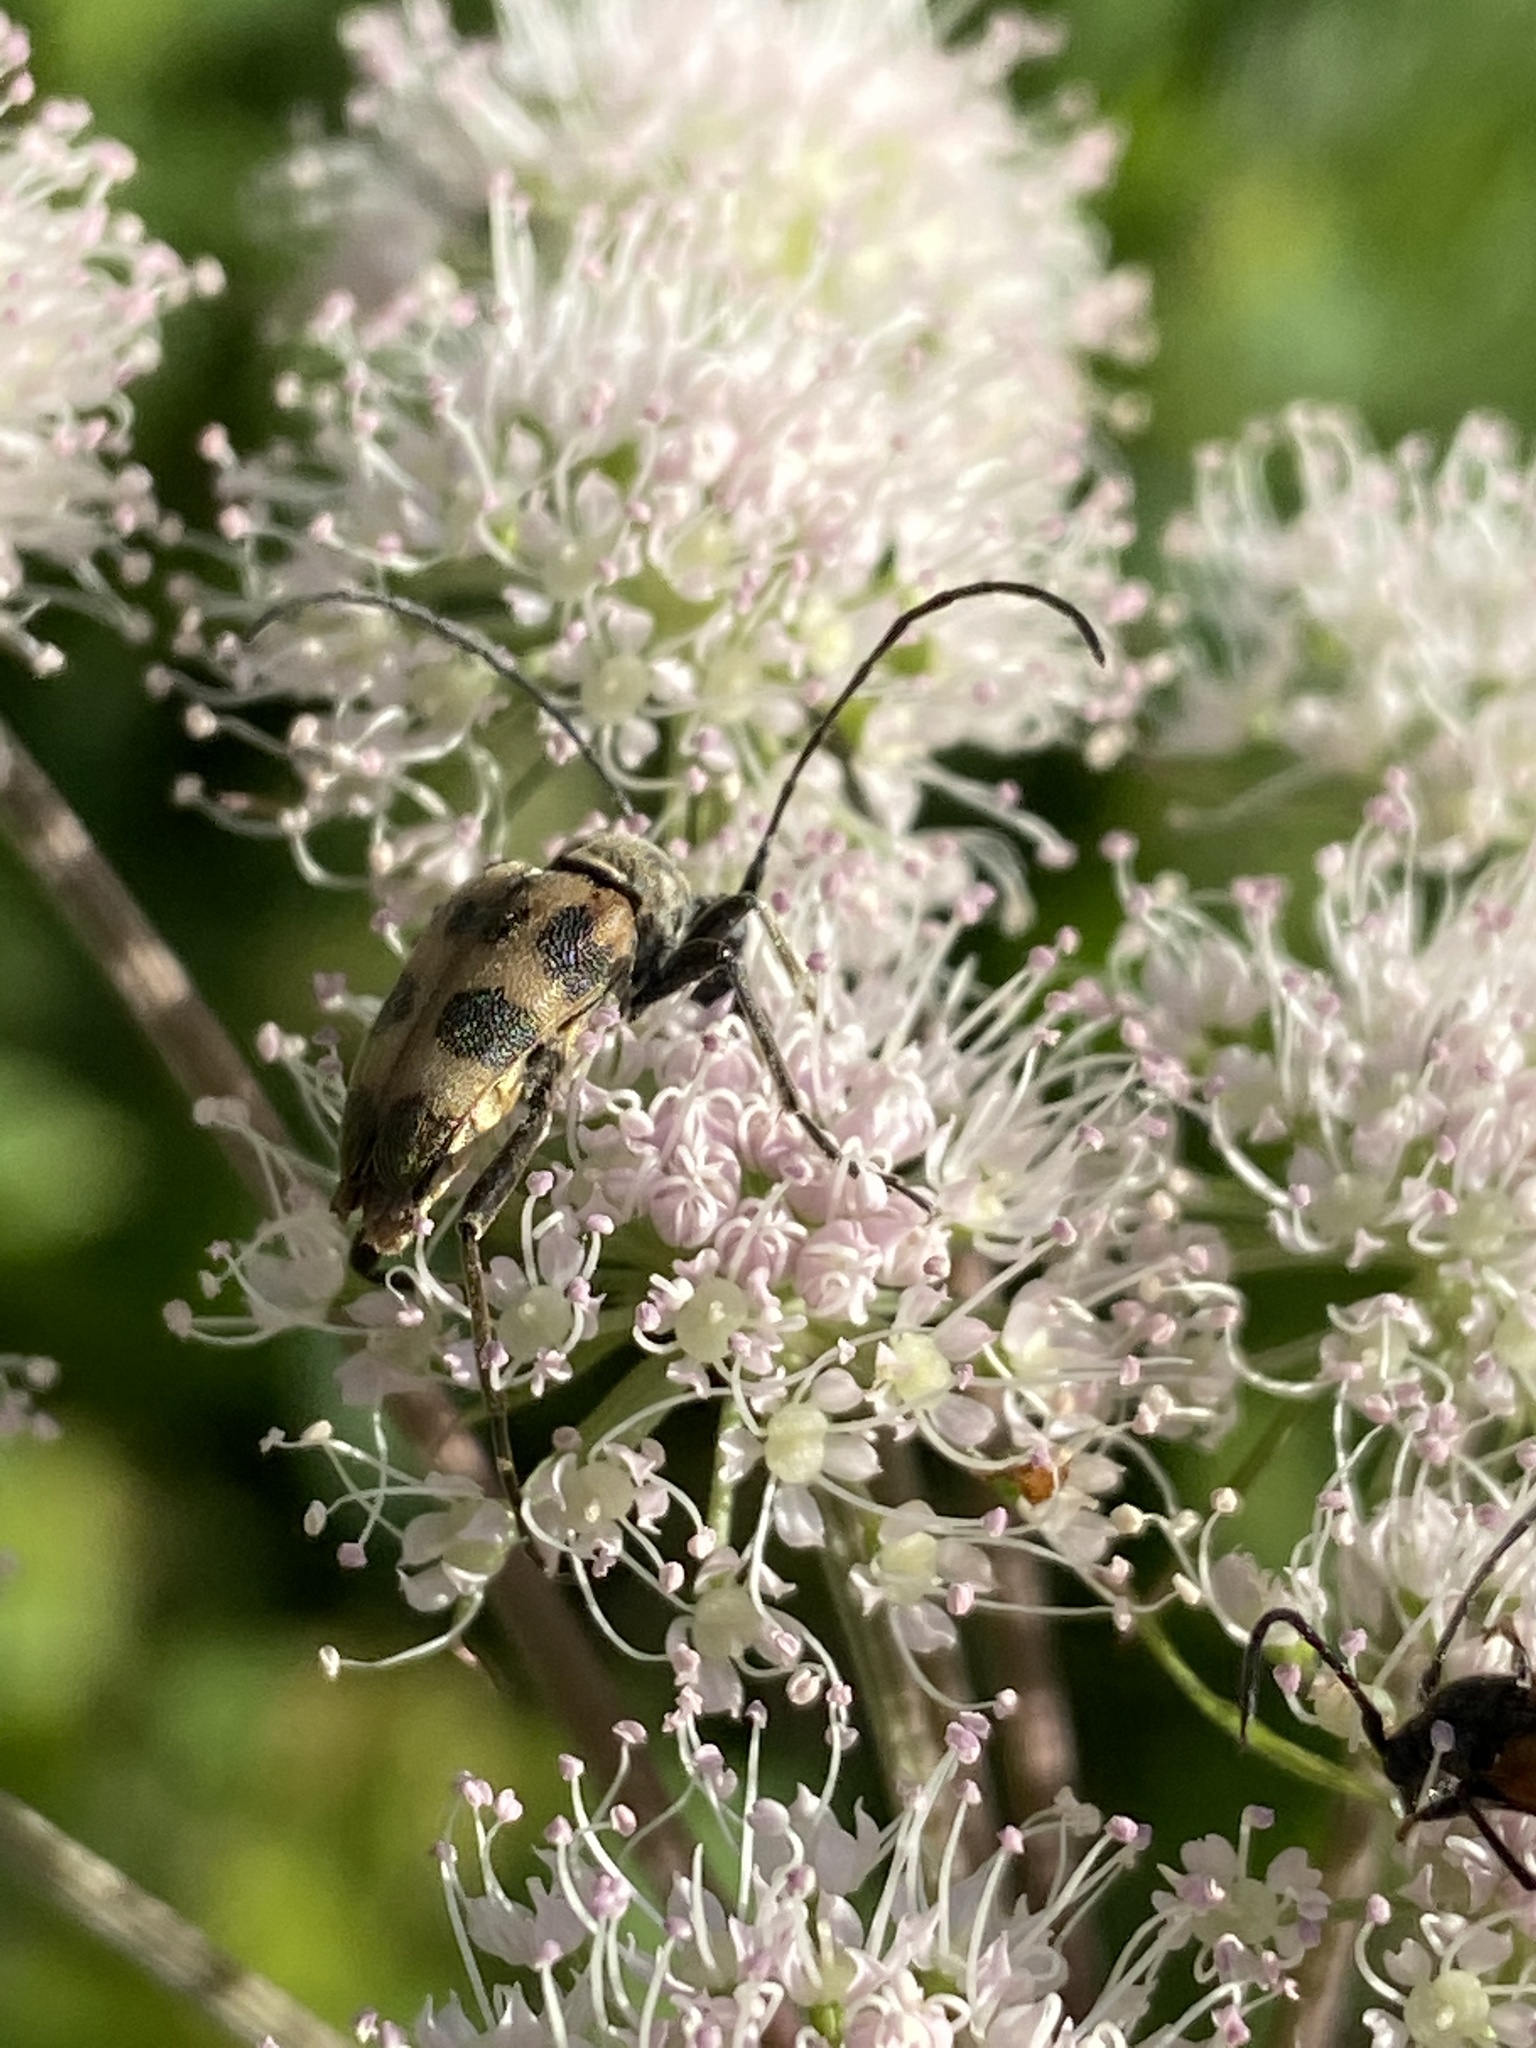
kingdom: Animalia
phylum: Arthropoda
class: Insecta
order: Coleoptera
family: Cerambycidae
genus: Pachytodes
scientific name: Pachytodes cerambyciformis
